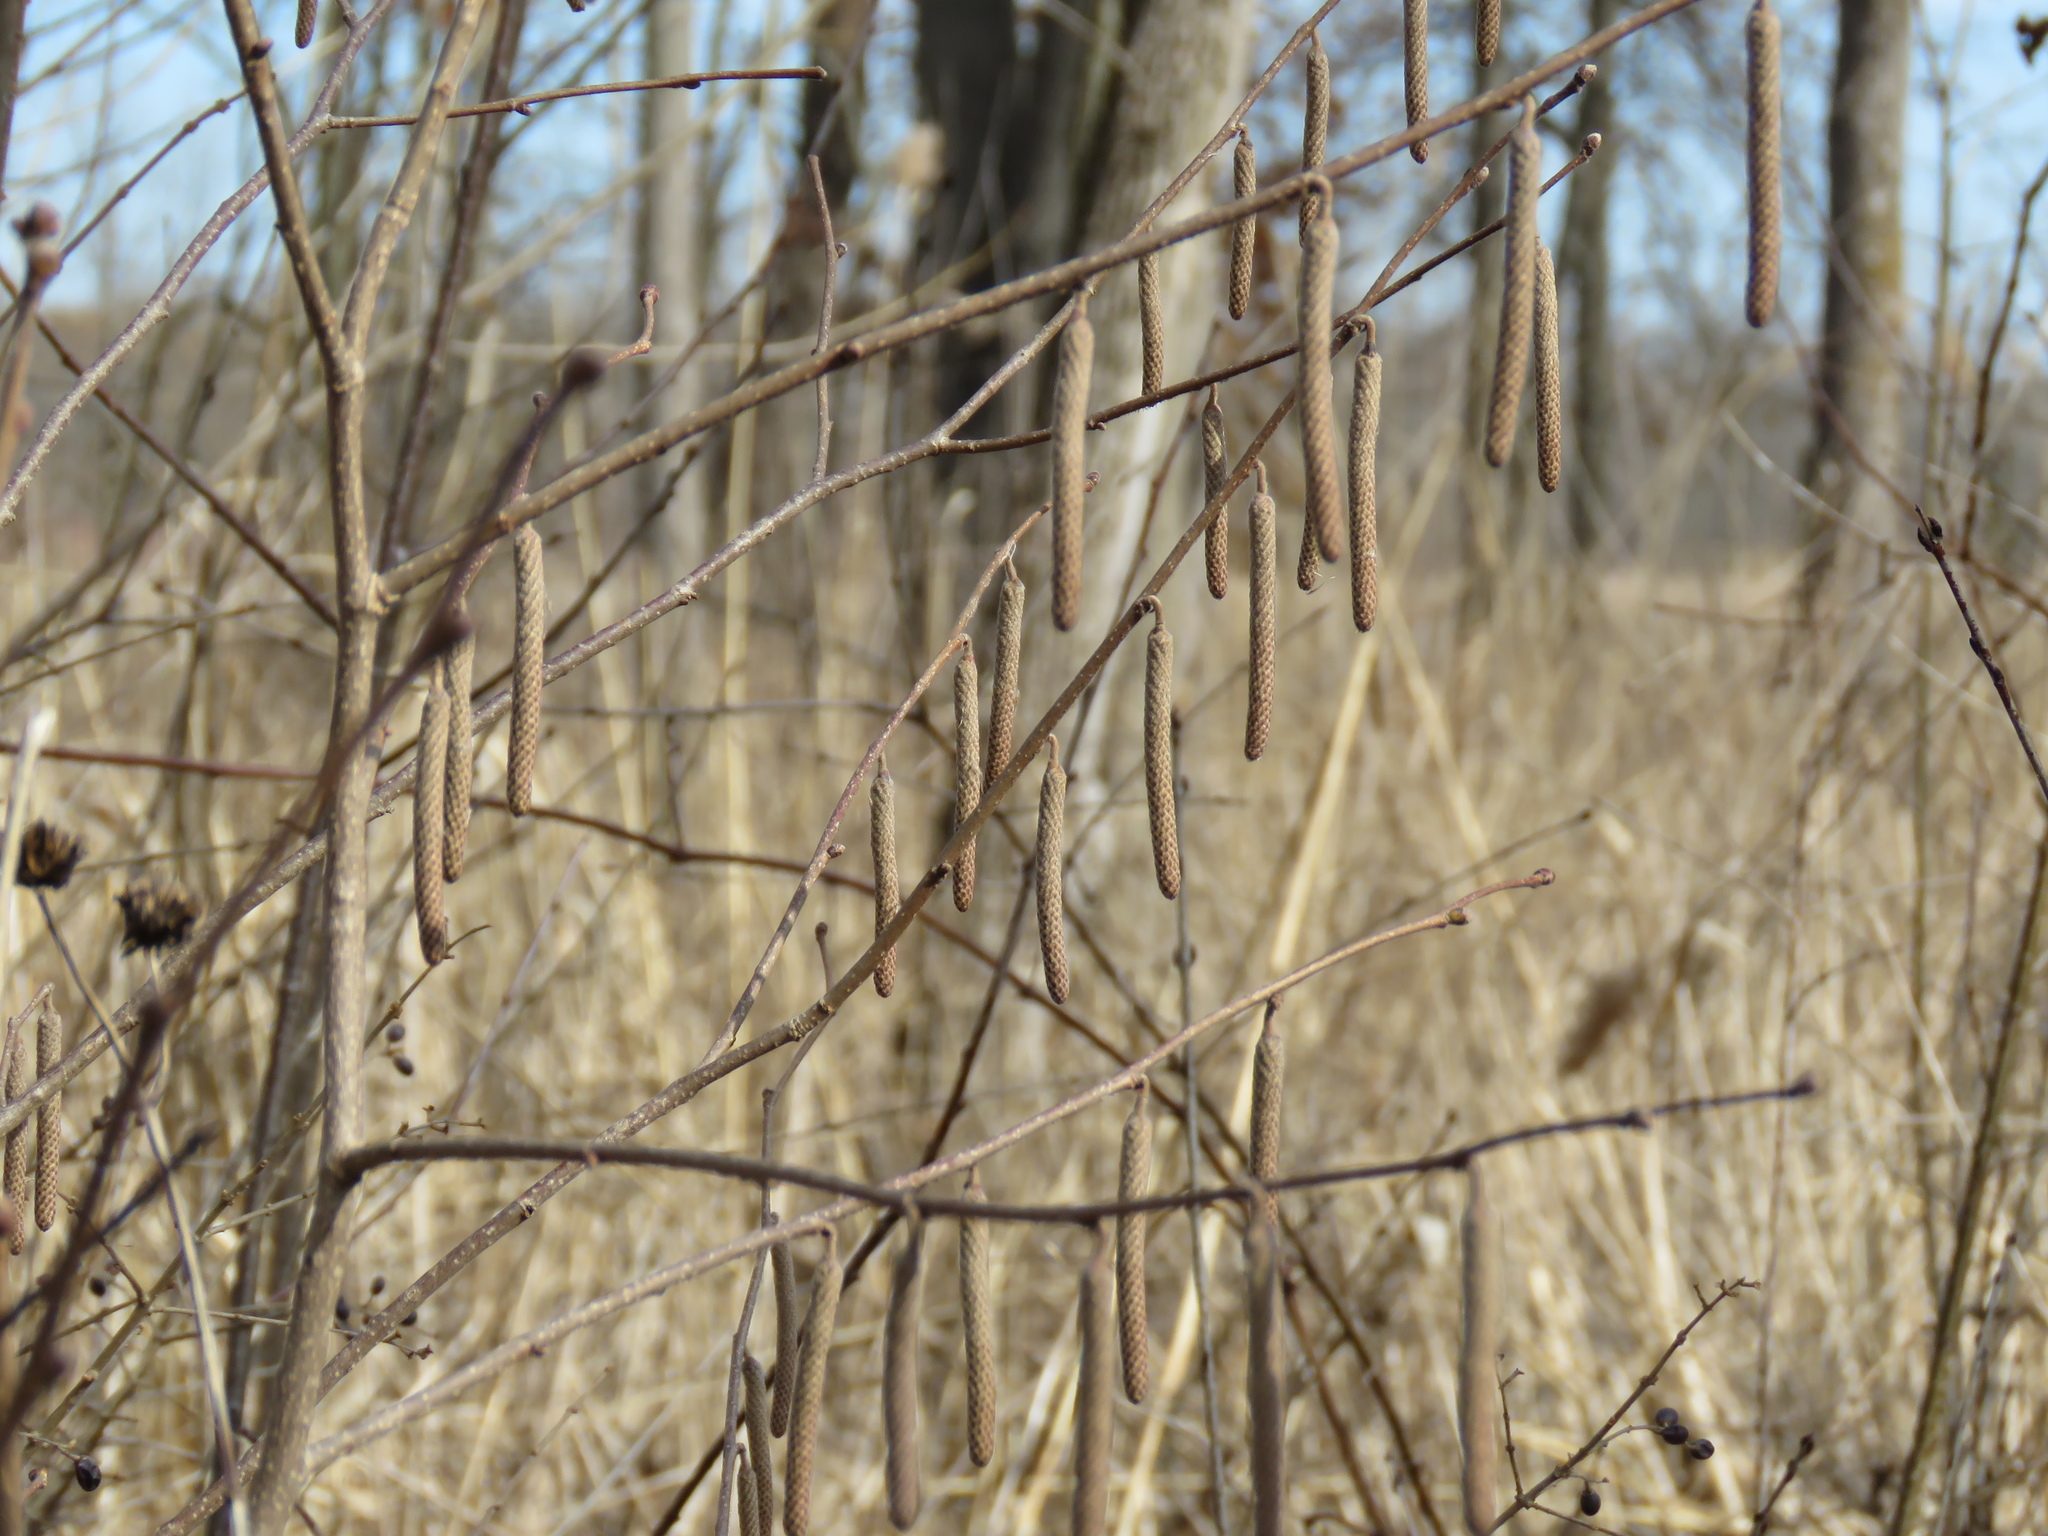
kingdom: Plantae
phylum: Tracheophyta
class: Magnoliopsida
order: Fagales
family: Betulaceae
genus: Corylus
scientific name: Corylus americana
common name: American hazel
